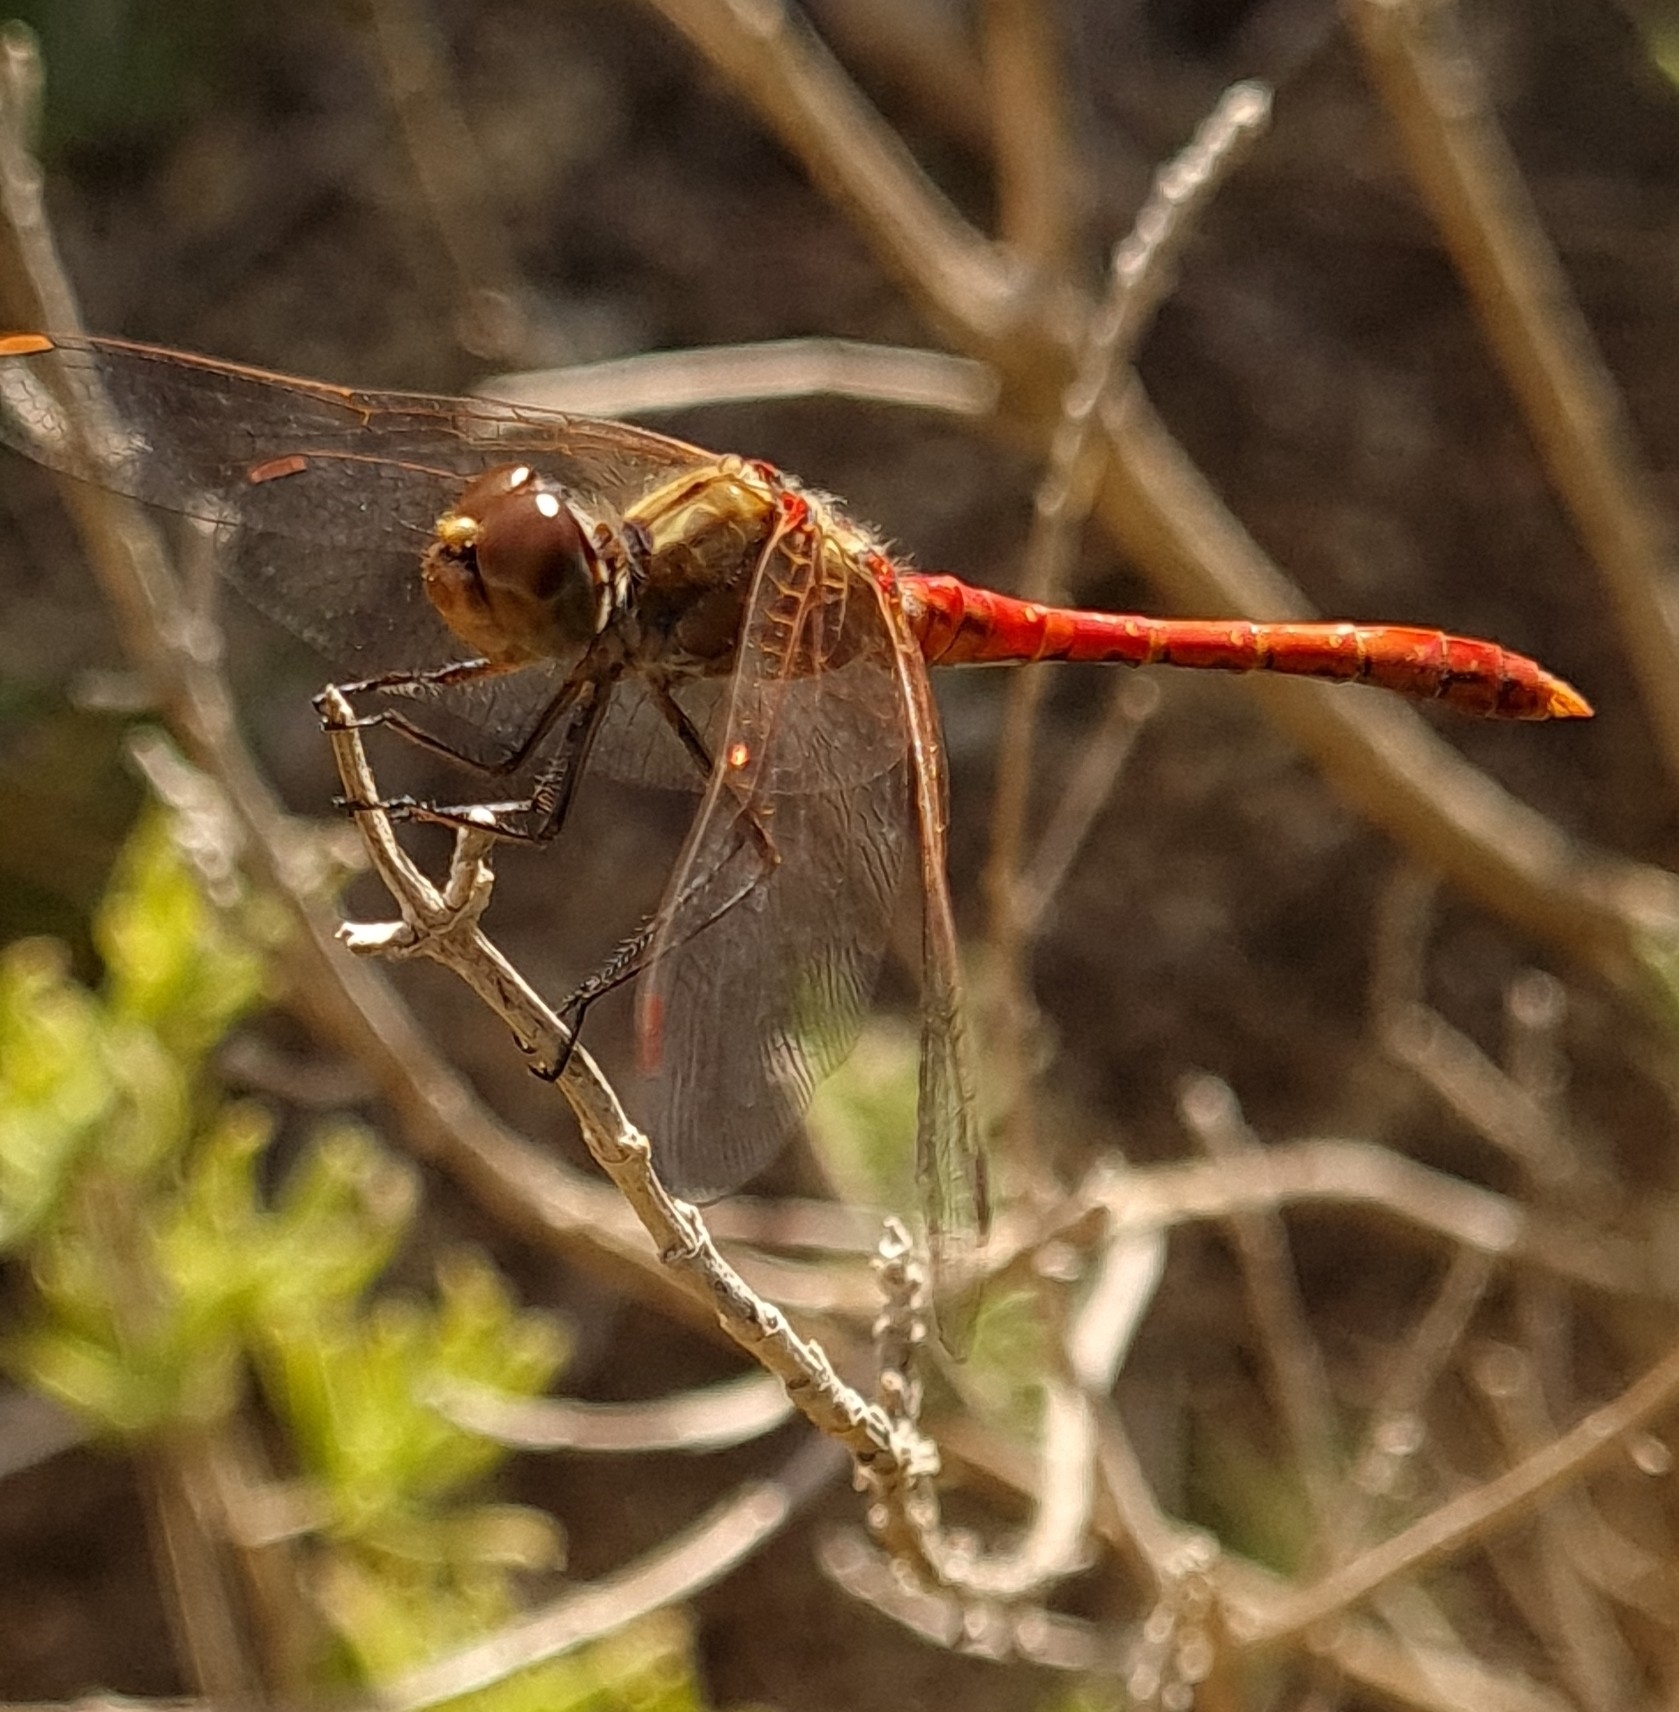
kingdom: Animalia
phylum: Arthropoda
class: Insecta
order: Odonata
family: Libellulidae
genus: Sympetrum
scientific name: Sympetrum meridionale
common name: Southern darter
